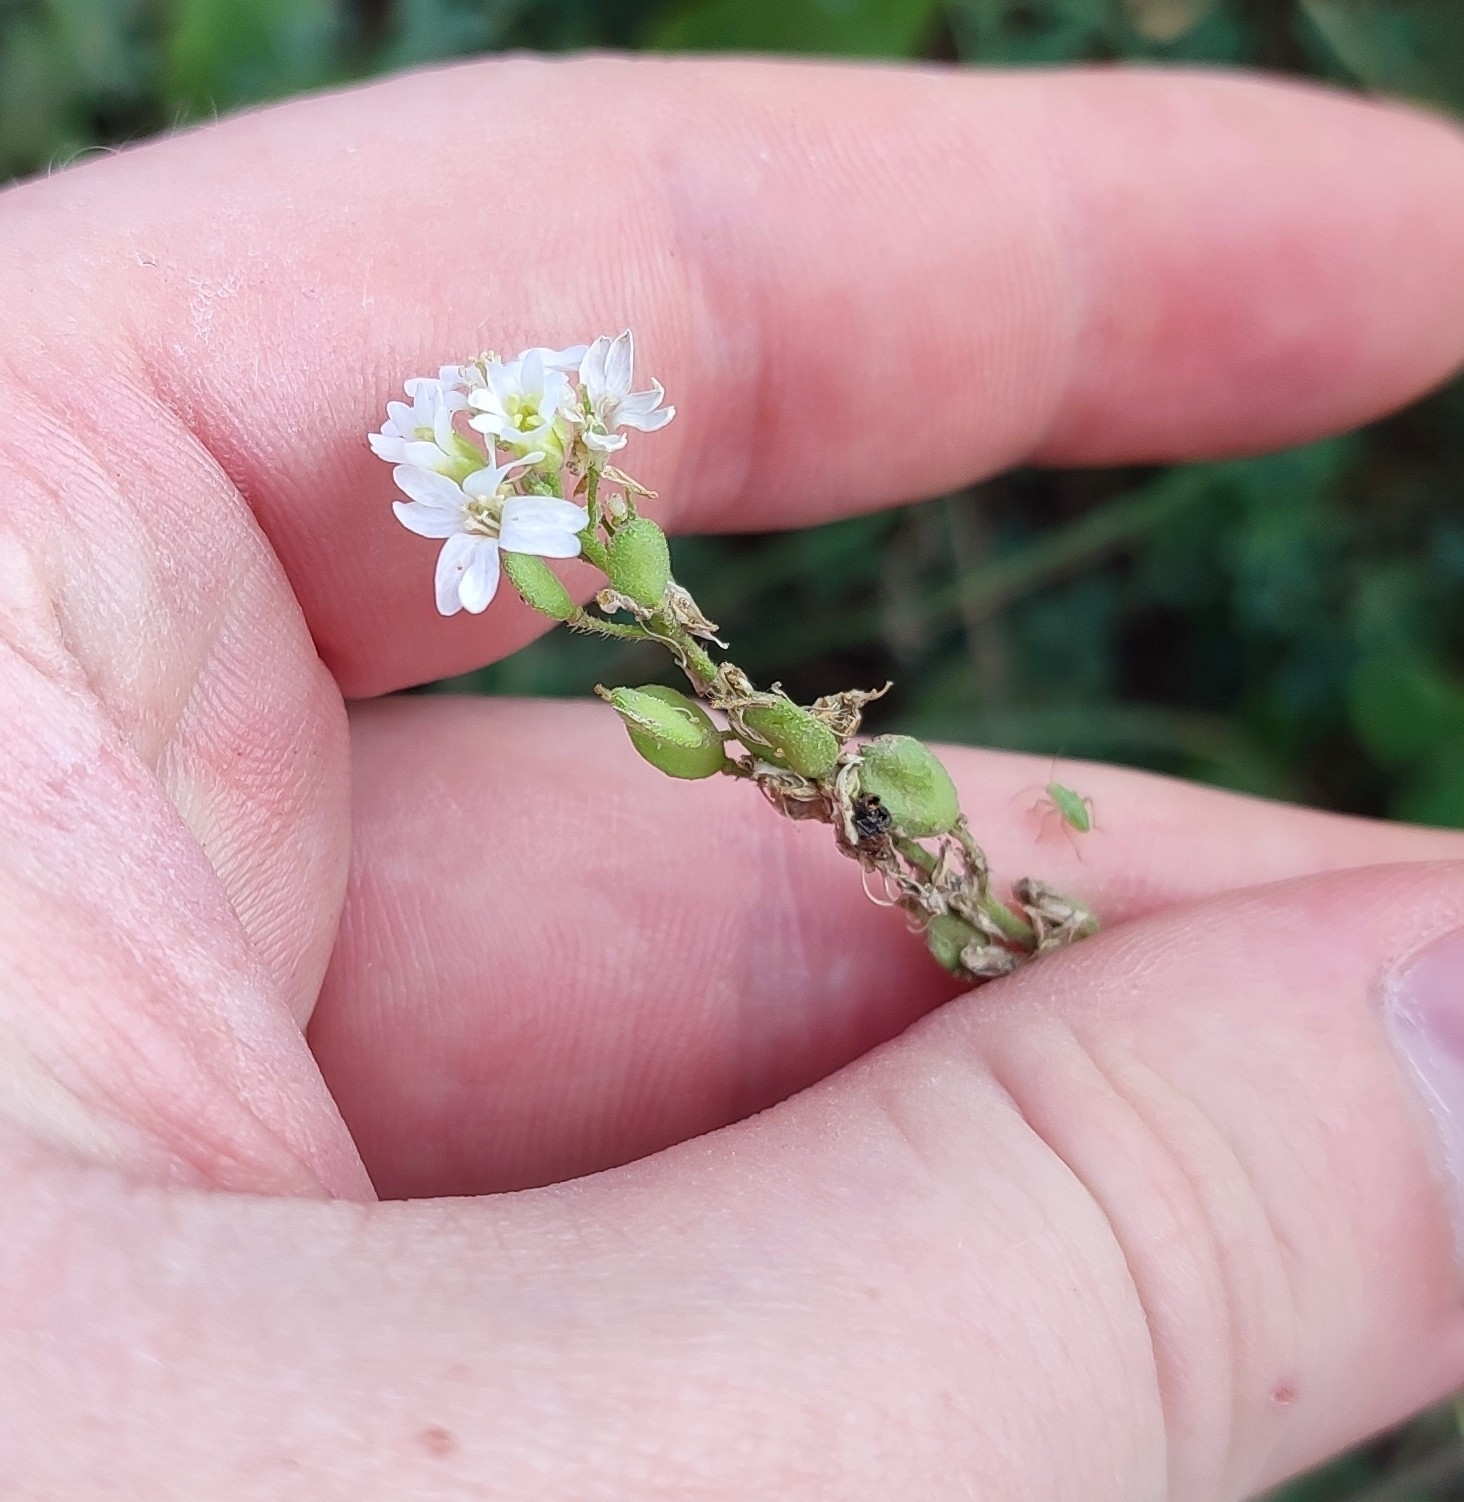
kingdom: Plantae
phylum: Tracheophyta
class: Magnoliopsida
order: Brassicales
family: Brassicaceae
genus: Berteroa
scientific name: Berteroa incana
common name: Hoary alison
